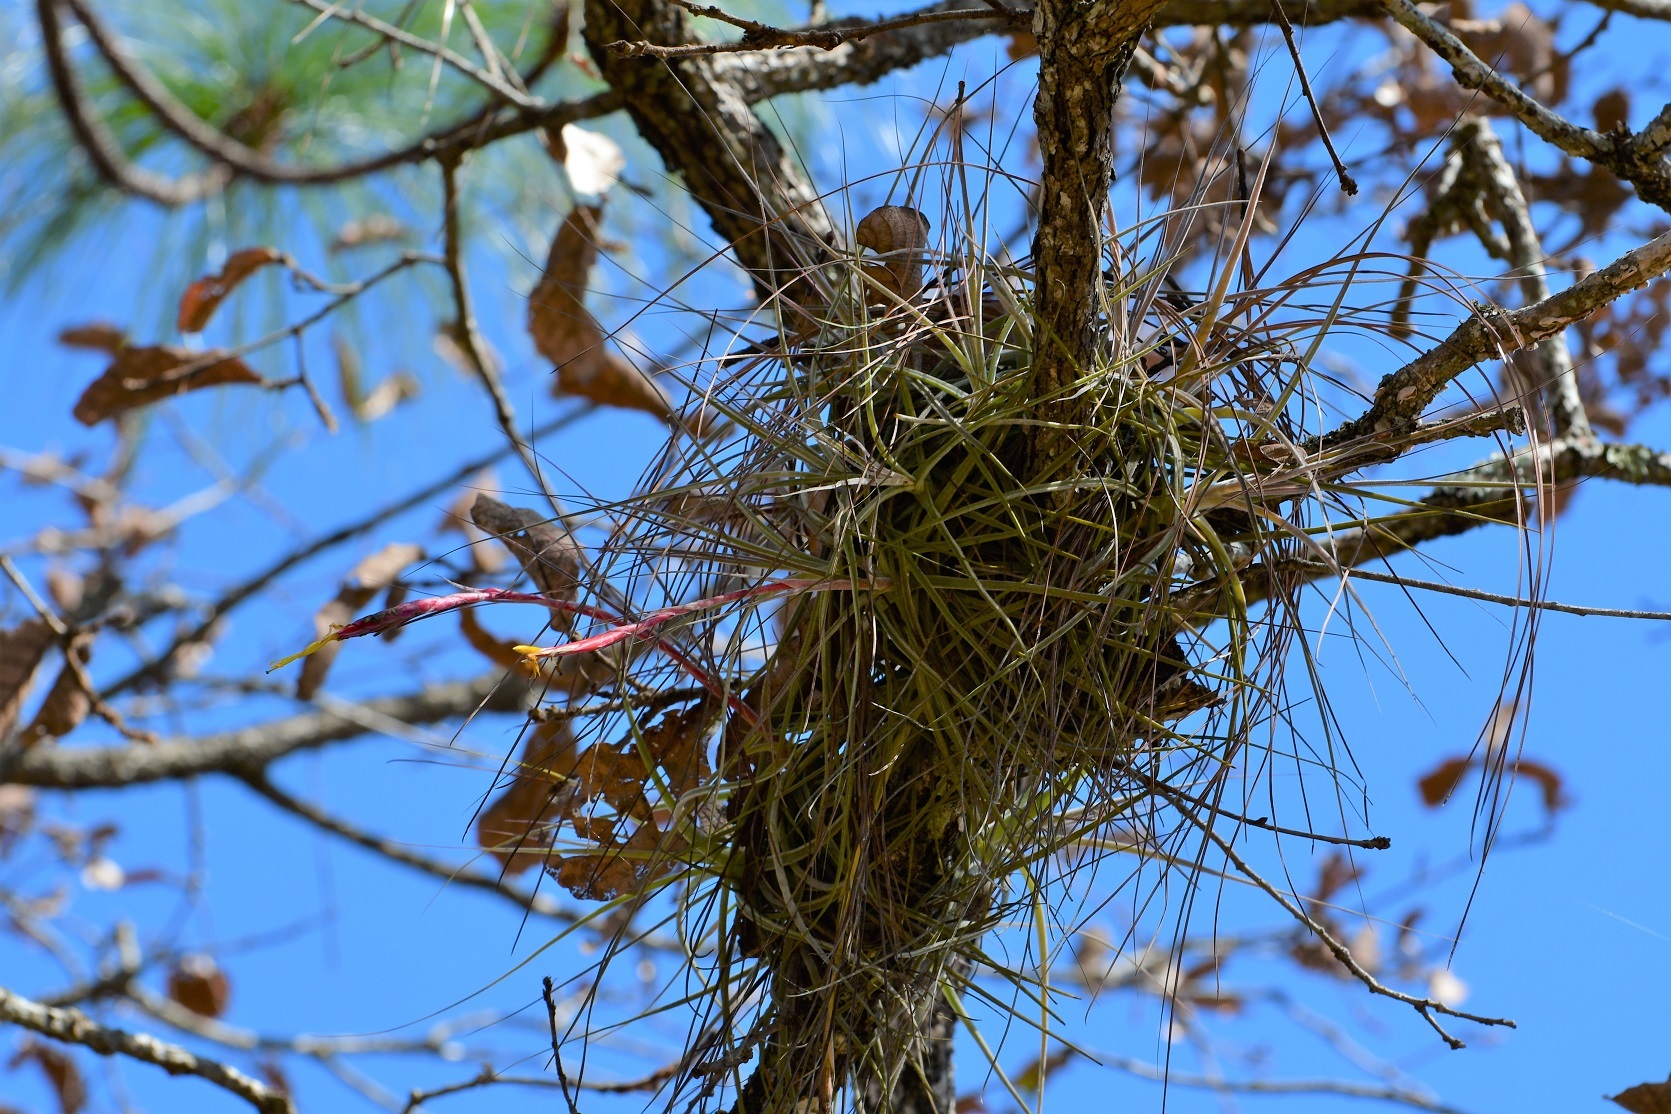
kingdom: Plantae
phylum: Tracheophyta
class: Liliopsida
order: Poales
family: Bromeliaceae
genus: Tillandsia
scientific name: Tillandsia schiedeana
